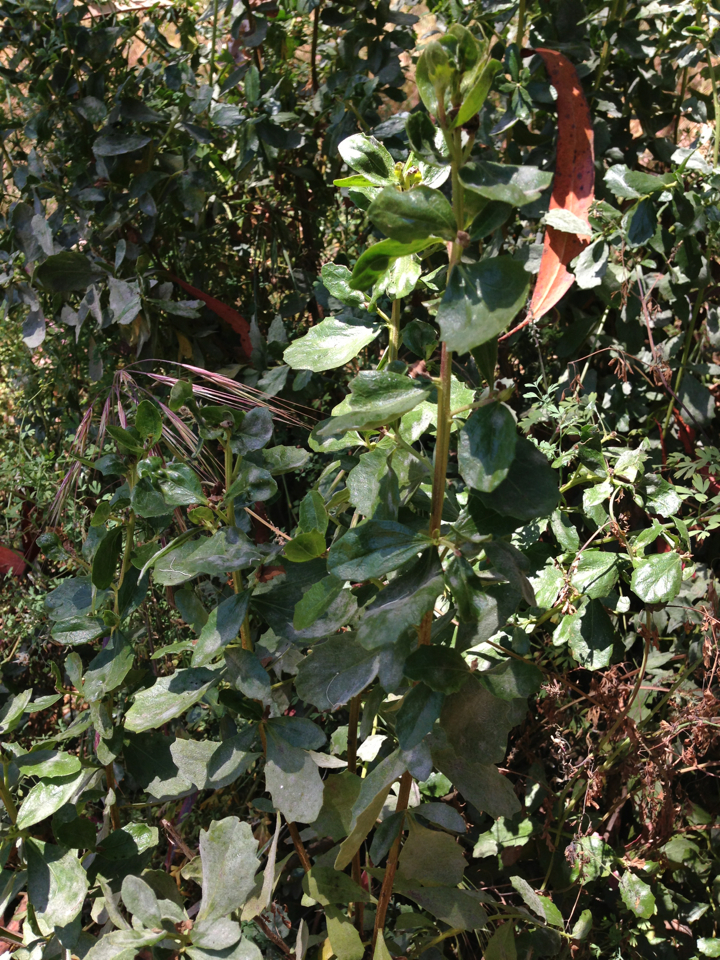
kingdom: Plantae
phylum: Tracheophyta
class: Magnoliopsida
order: Asterales
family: Asteraceae
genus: Baccharis
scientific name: Baccharis pilularis
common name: Coyotebrush
